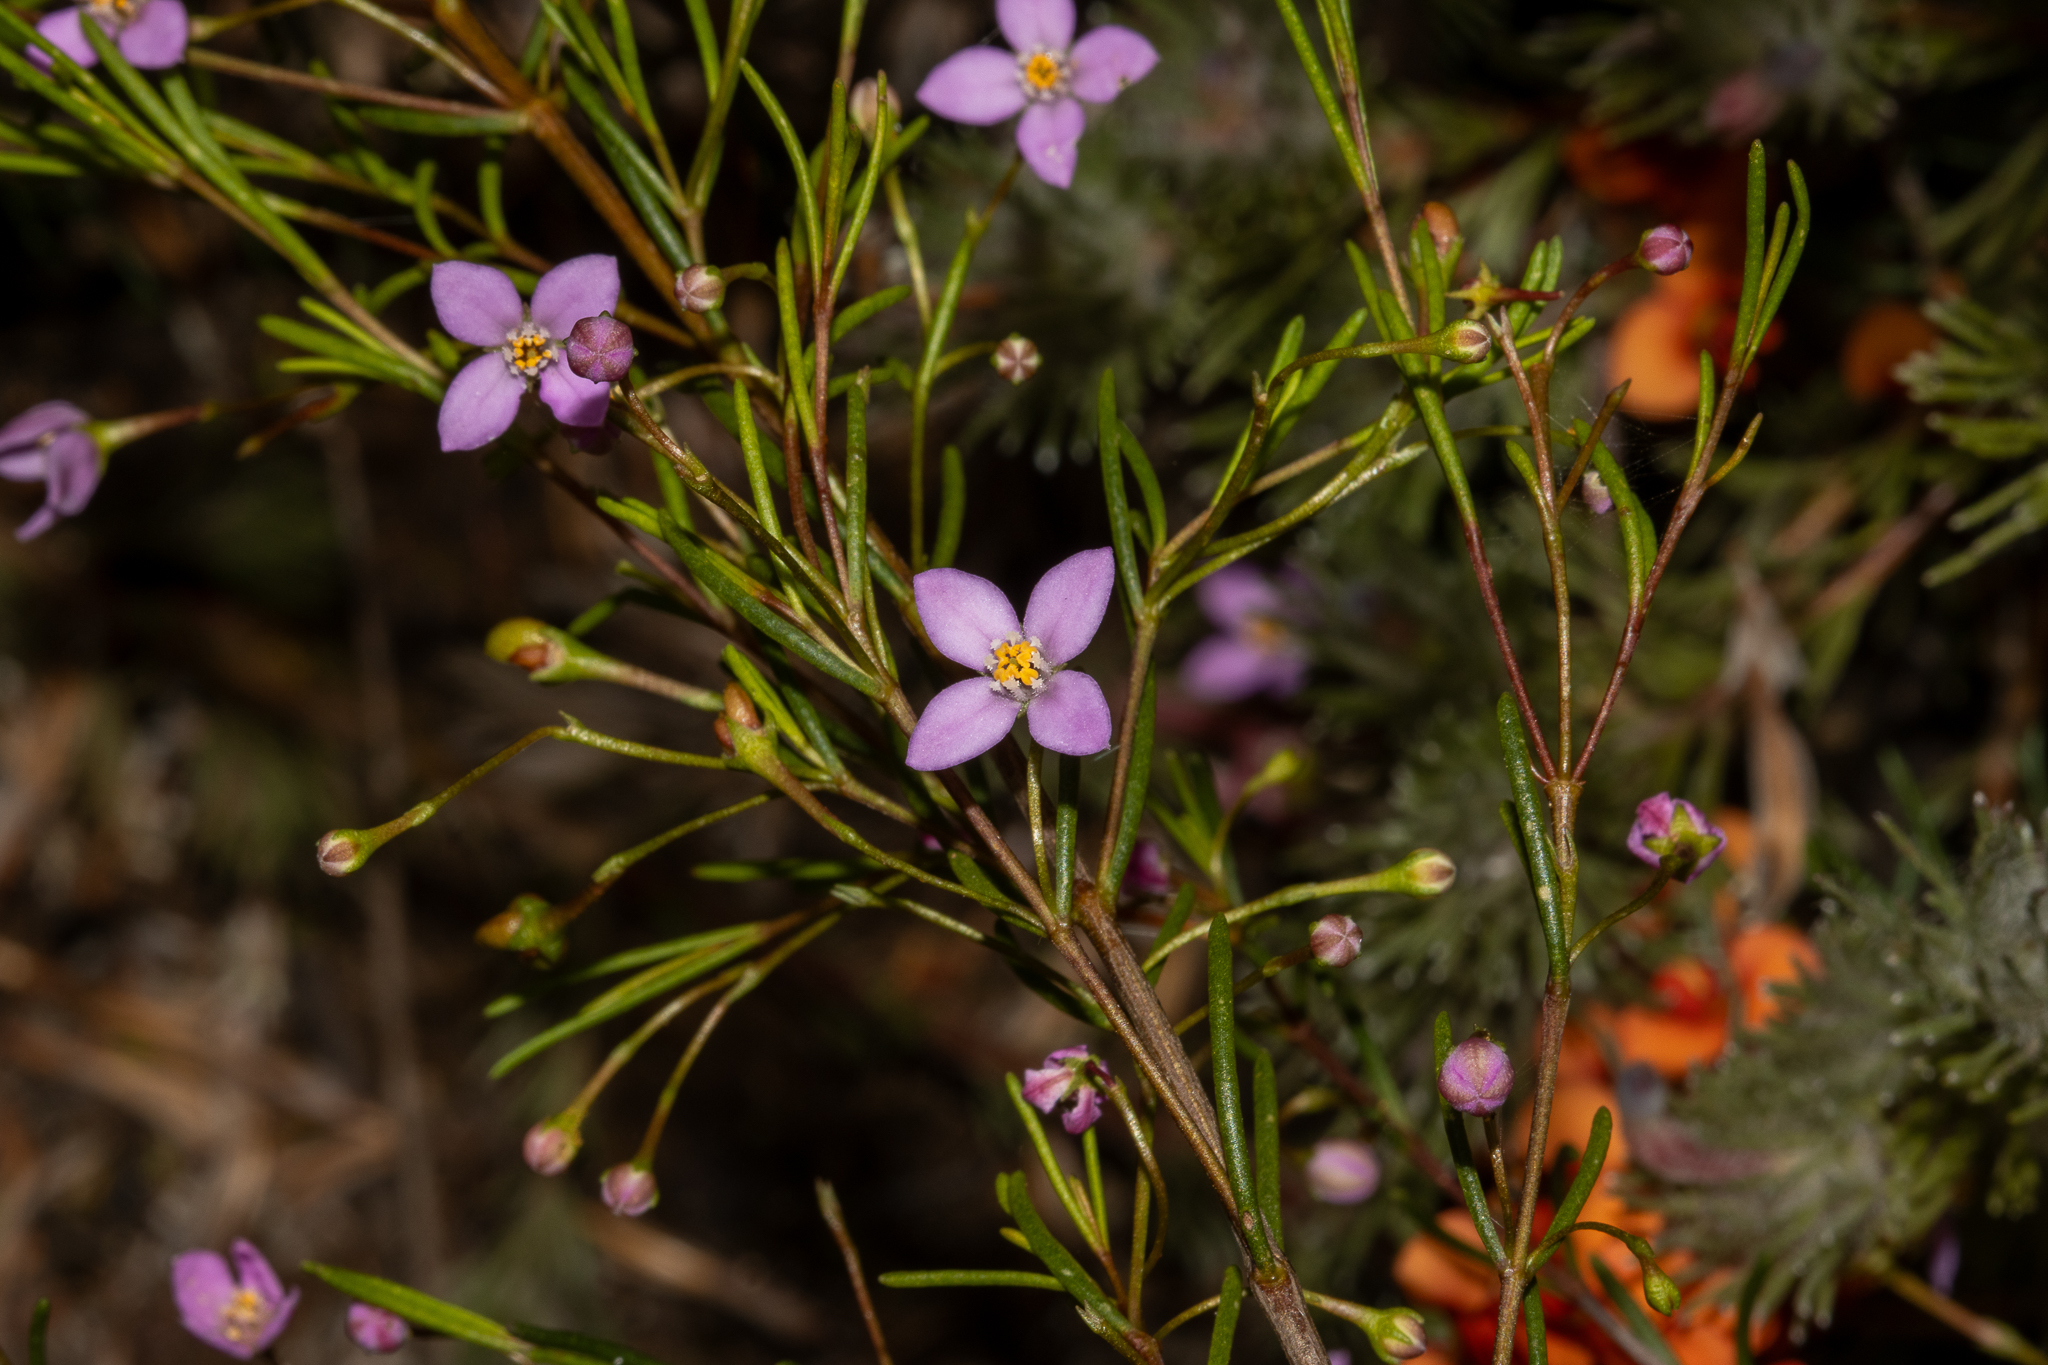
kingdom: Plantae
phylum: Tracheophyta
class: Magnoliopsida
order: Sapindales
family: Rutaceae
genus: Boronia
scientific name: Boronia filifolia
